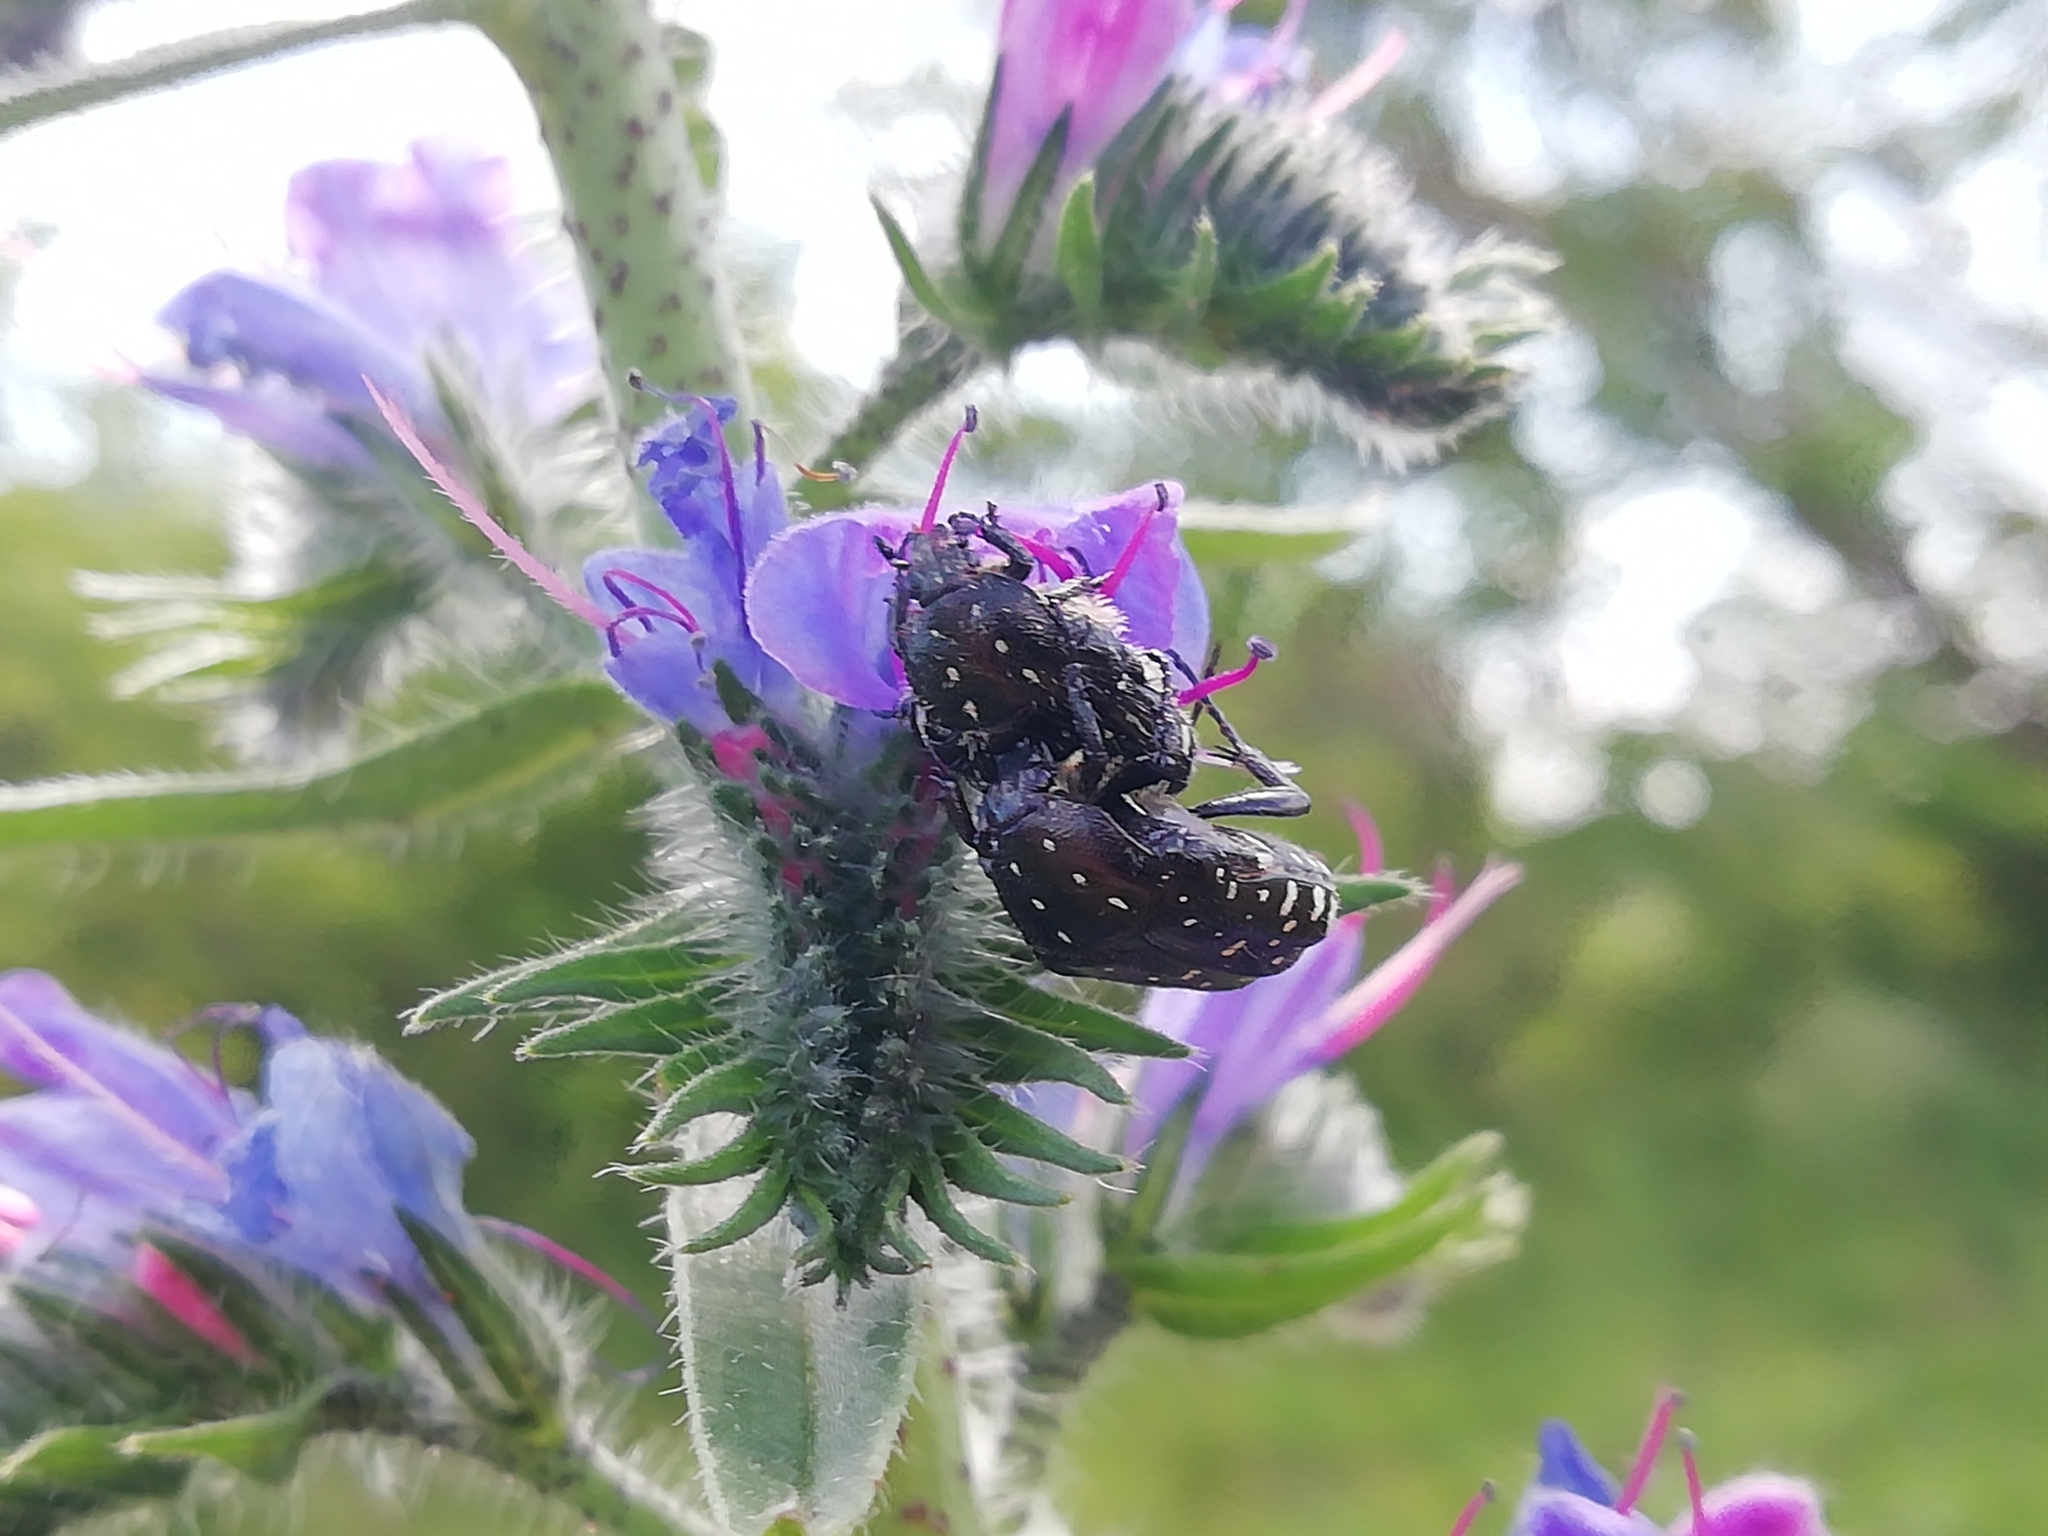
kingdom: Animalia
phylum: Arthropoda
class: Insecta
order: Coleoptera
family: Scarabaeidae
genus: Oxythyrea
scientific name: Oxythyrea funesta
